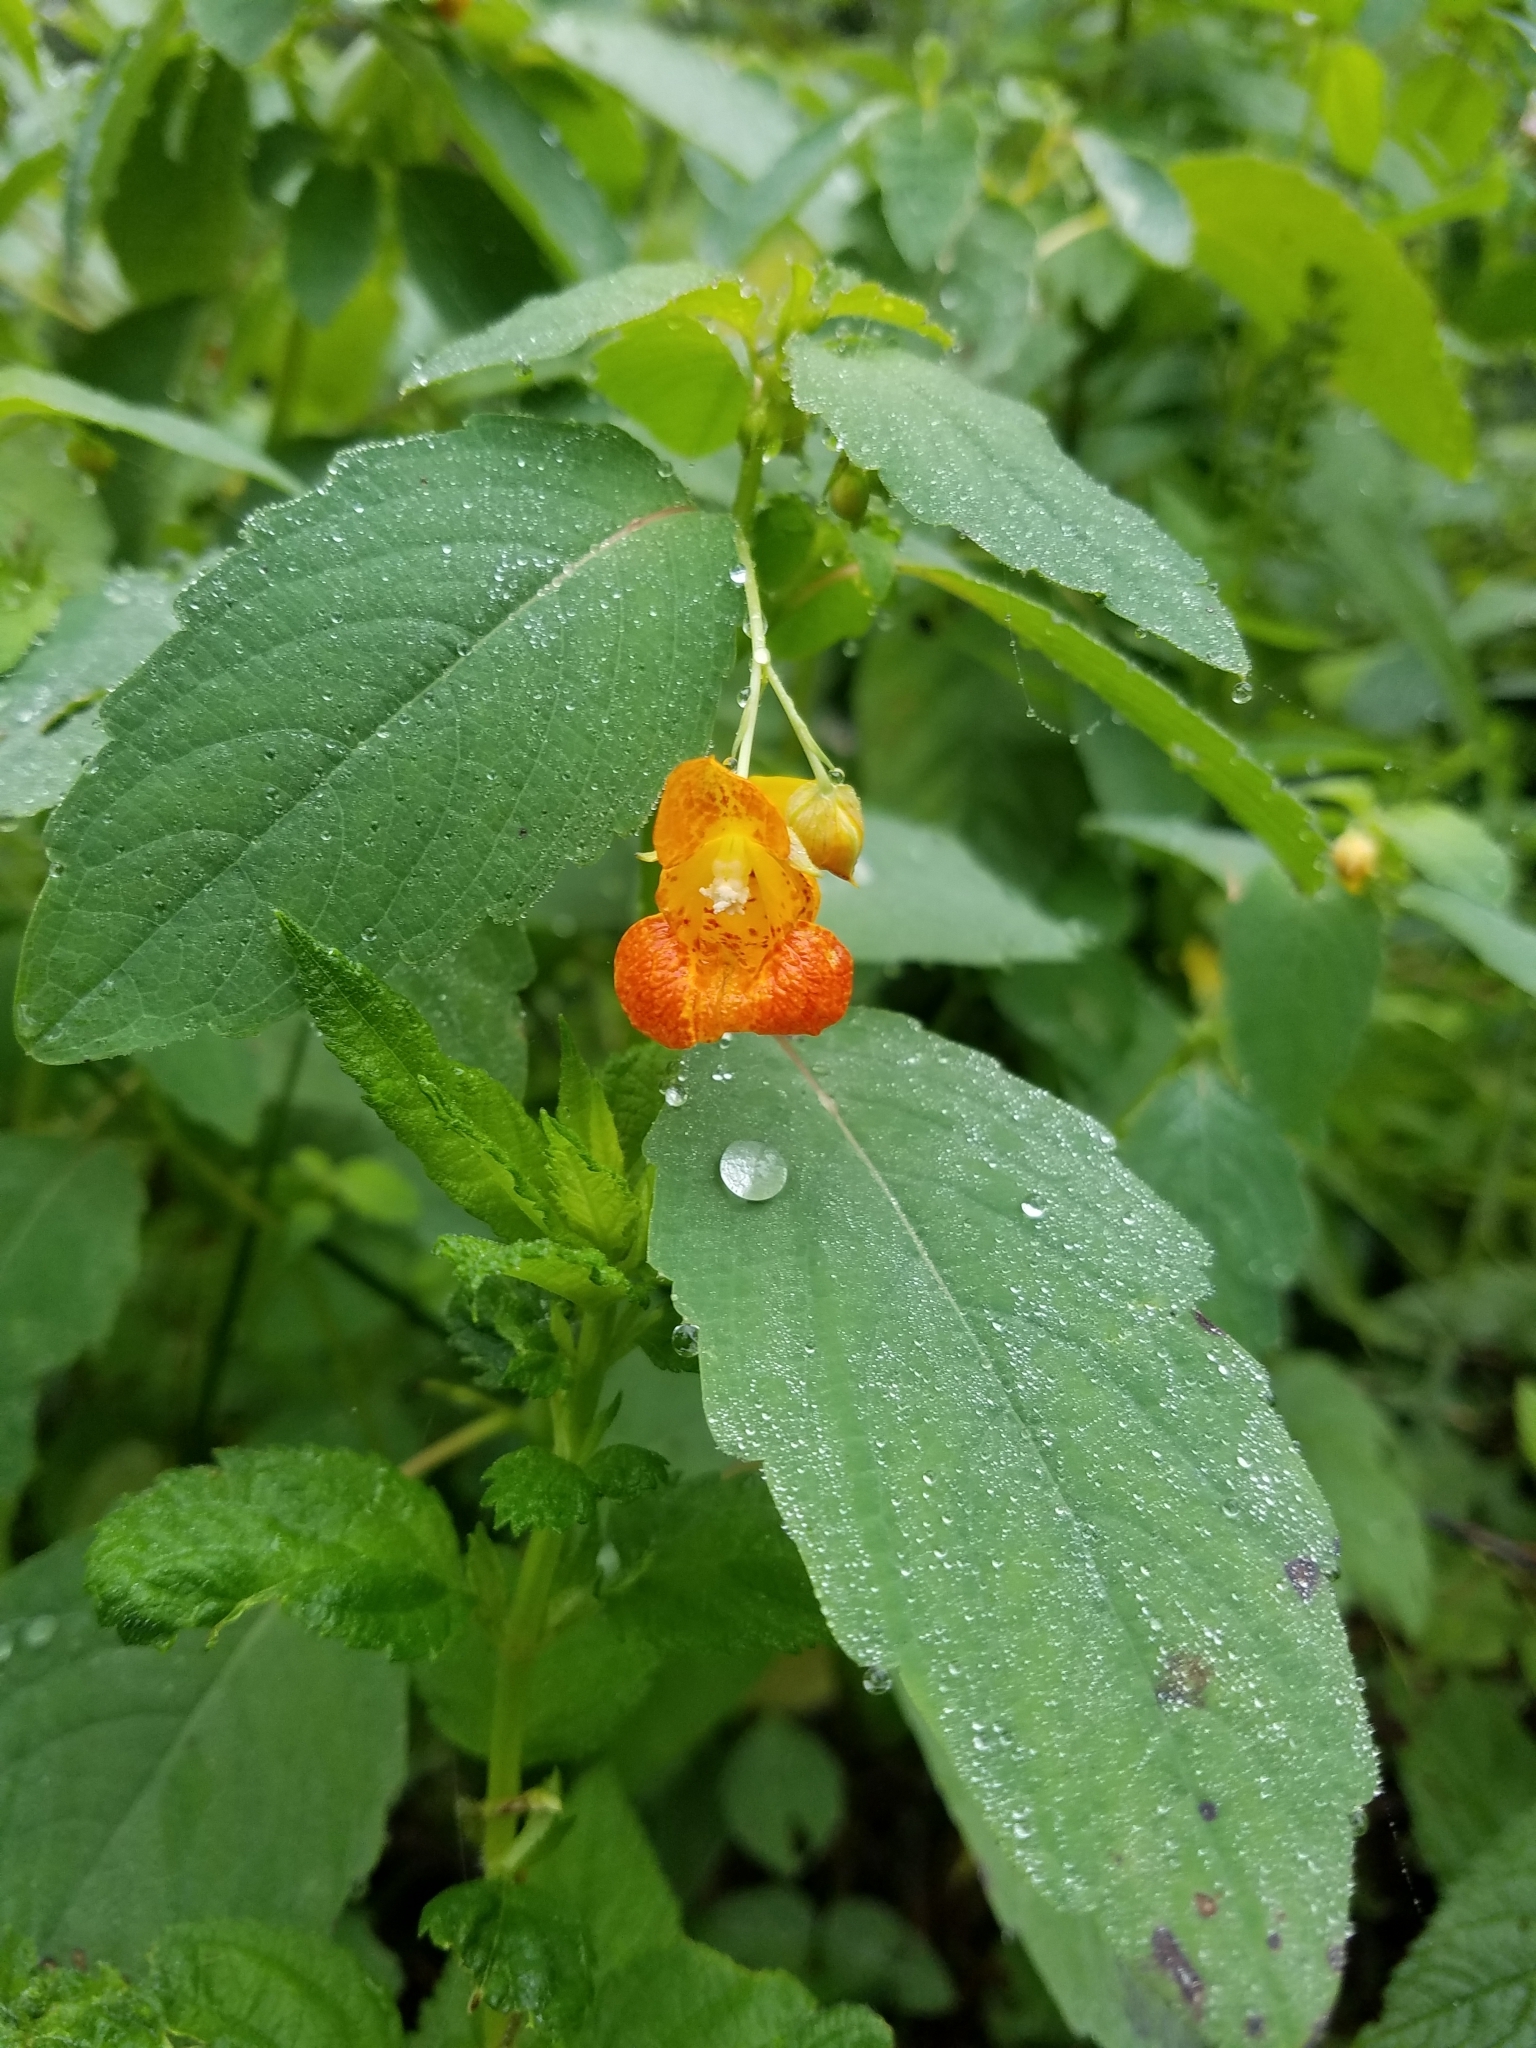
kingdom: Plantae
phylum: Tracheophyta
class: Magnoliopsida
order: Ericales
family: Balsaminaceae
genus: Impatiens
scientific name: Impatiens capensis
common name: Orange balsam
